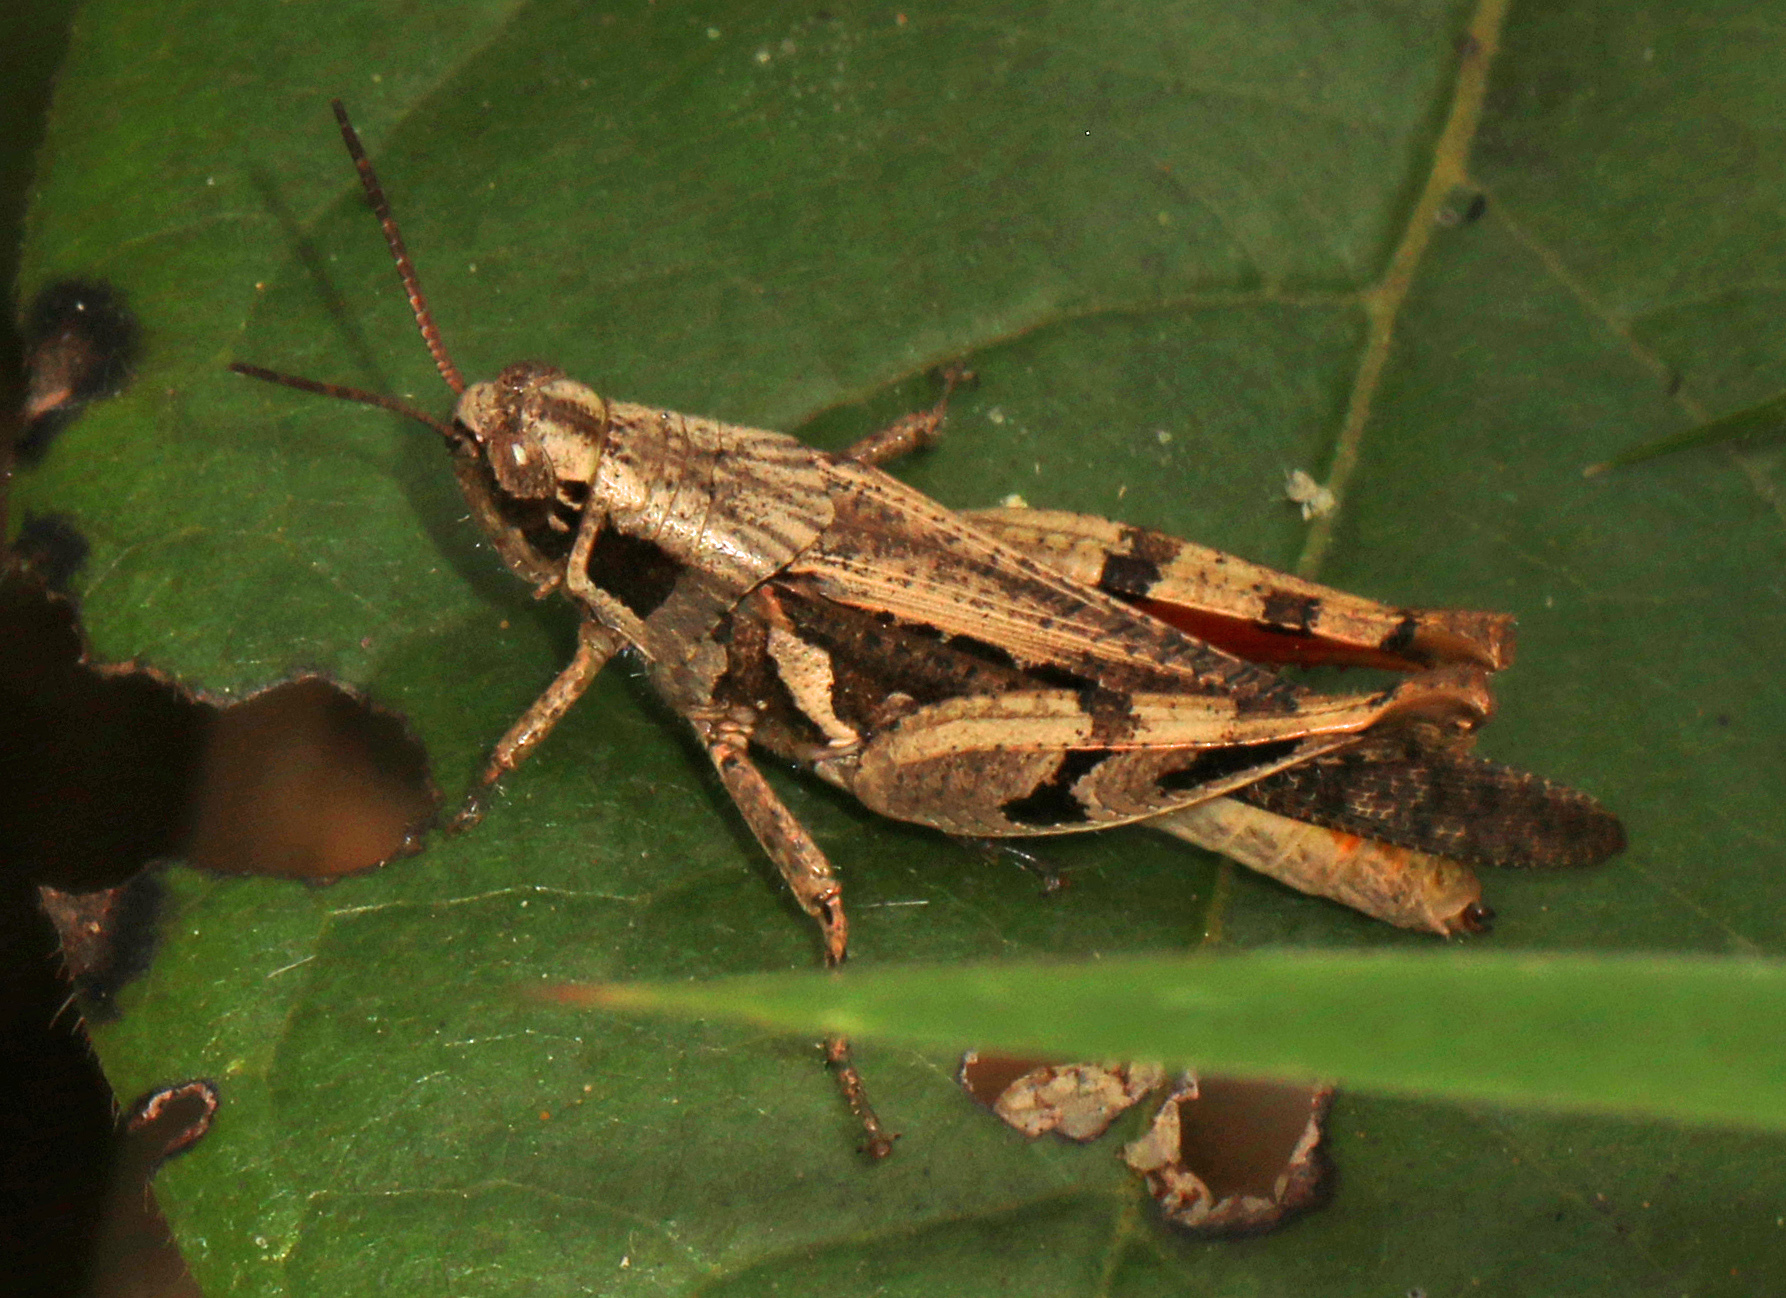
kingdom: Animalia
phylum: Arthropoda
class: Insecta
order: Orthoptera
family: Acrididae
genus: Catantops
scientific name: Catantops melanostictus
